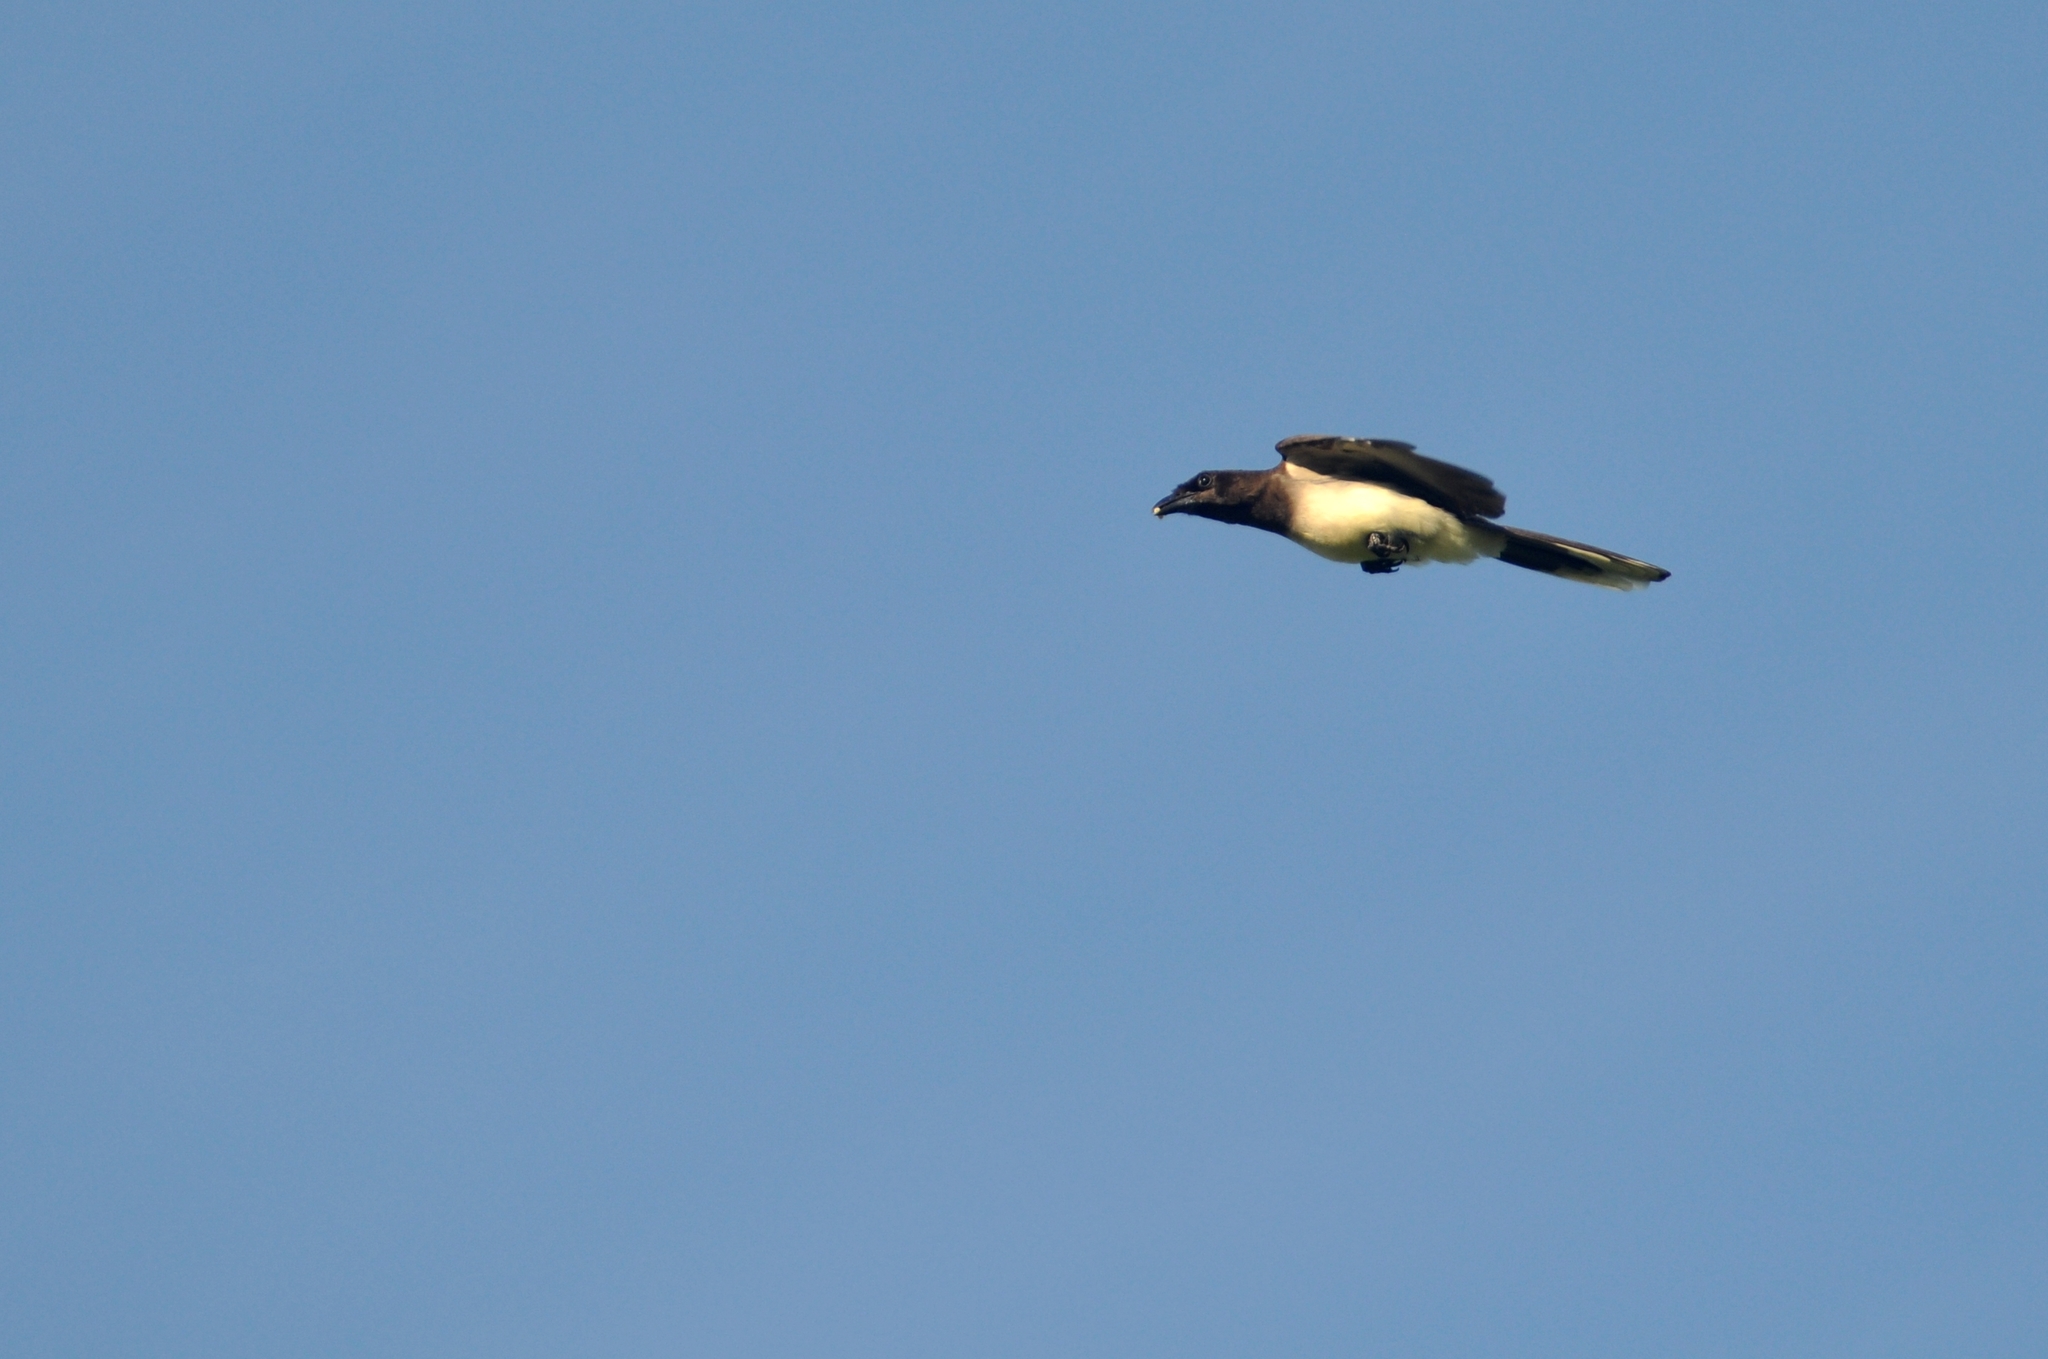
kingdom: Animalia
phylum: Chordata
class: Aves
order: Passeriformes
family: Corvidae
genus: Psilorhinus
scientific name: Psilorhinus morio
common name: Brown jay
